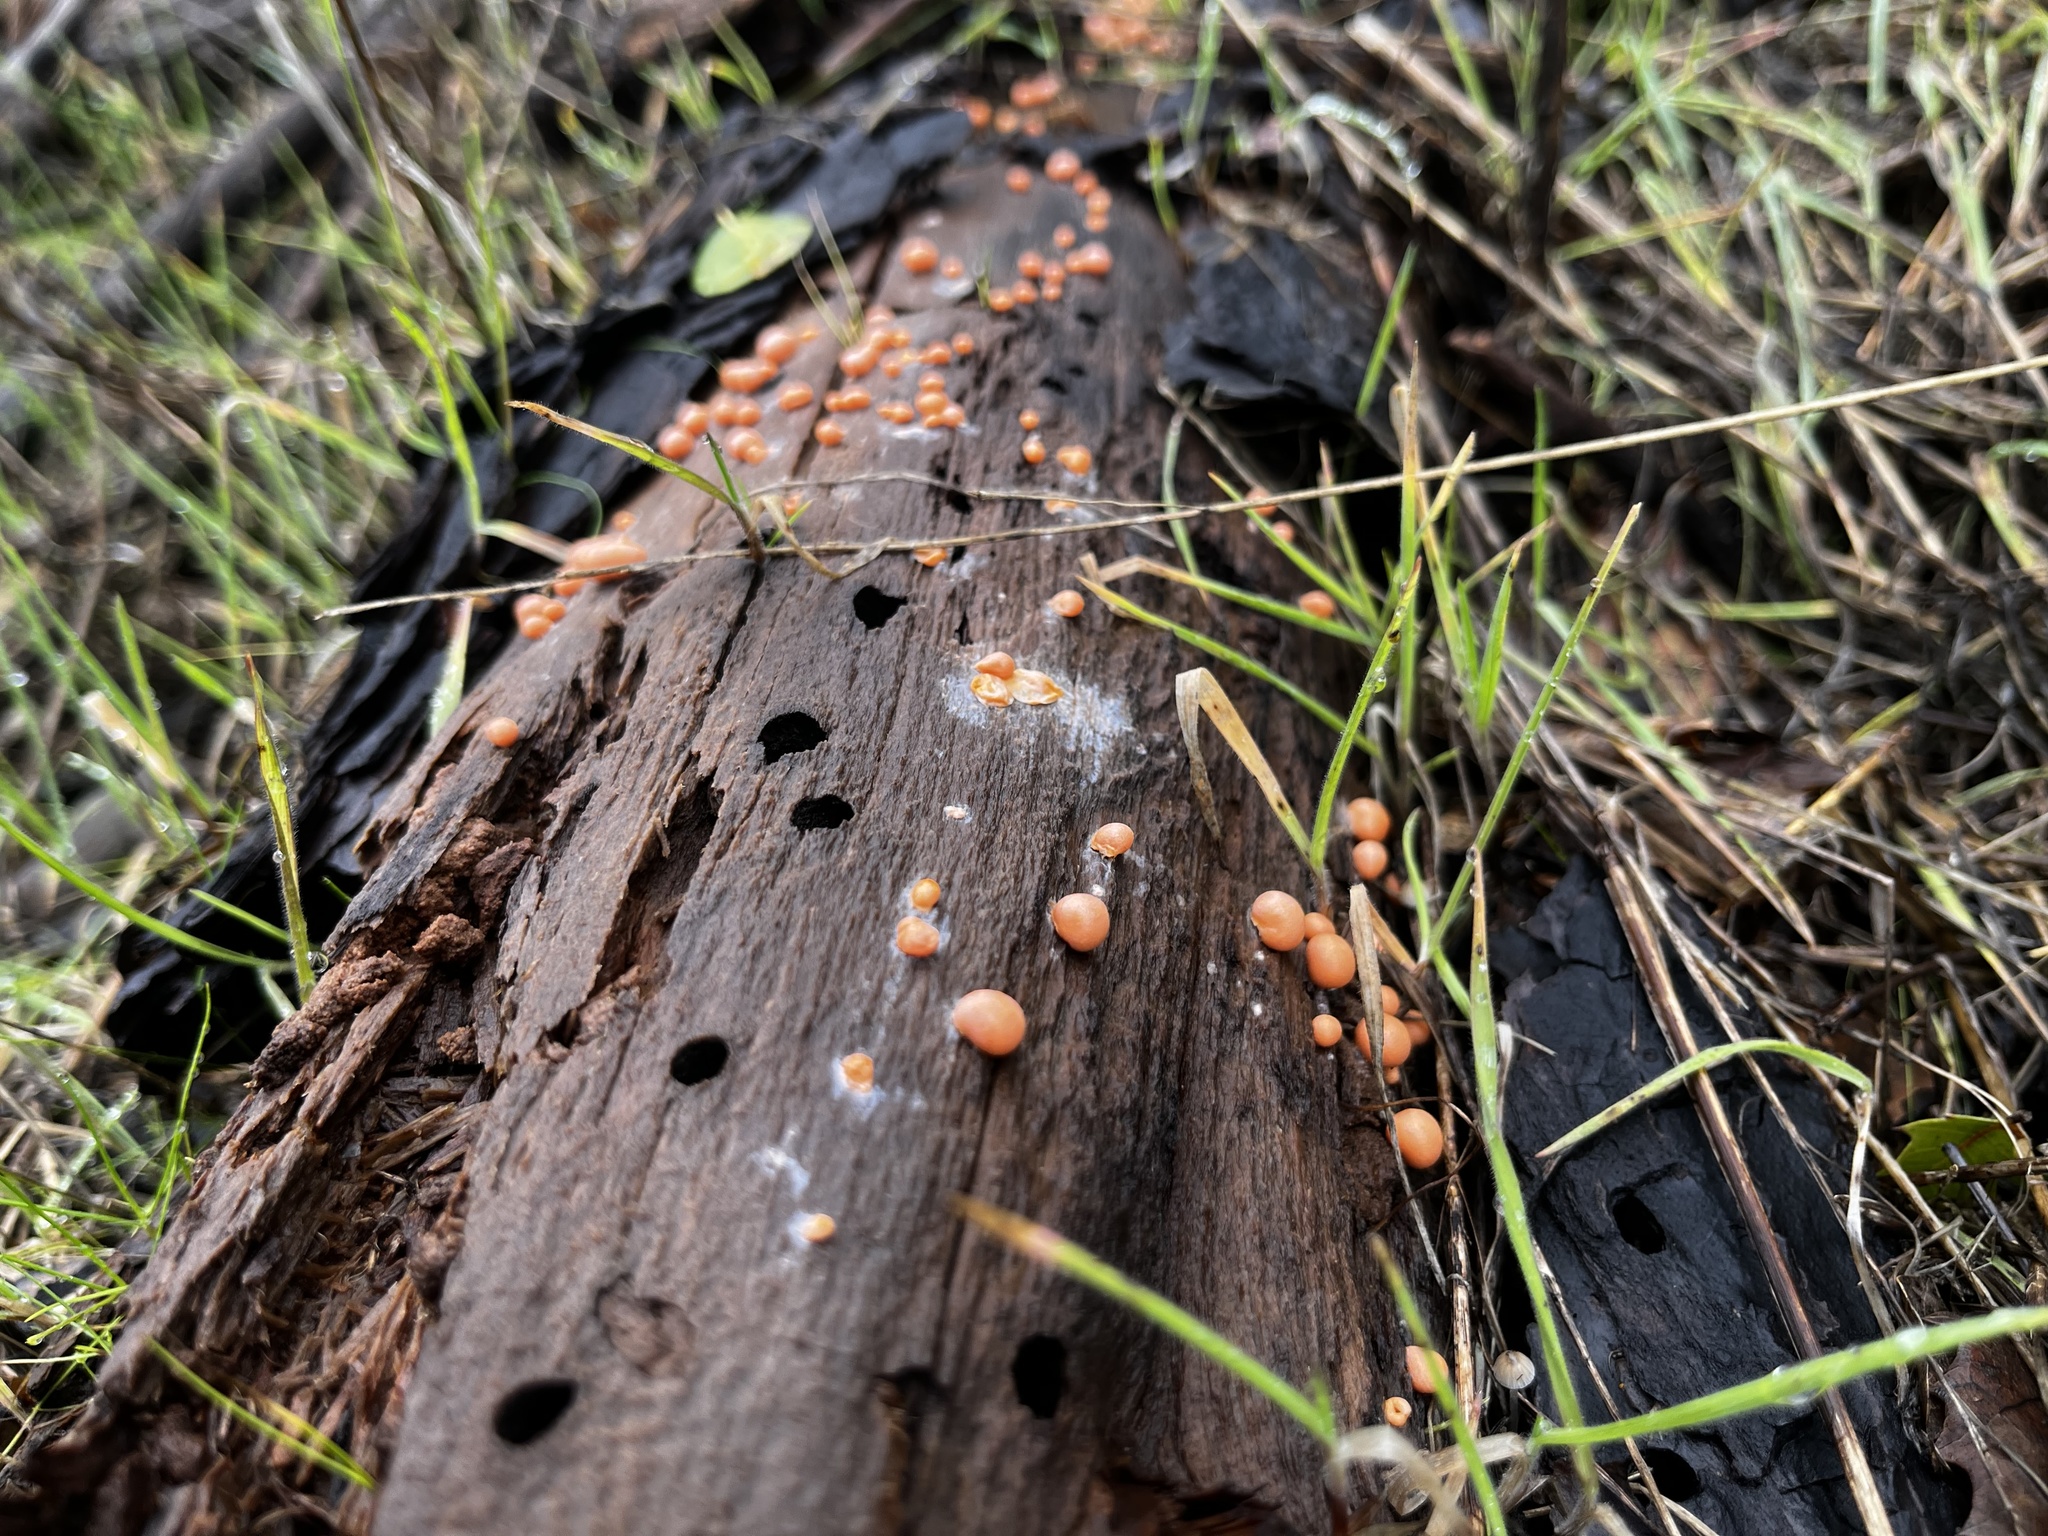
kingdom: Protozoa
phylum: Mycetozoa
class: Myxomycetes
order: Cribrariales
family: Tubiferaceae
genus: Lycogala
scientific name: Lycogala epidendrum
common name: Wolf's milk
